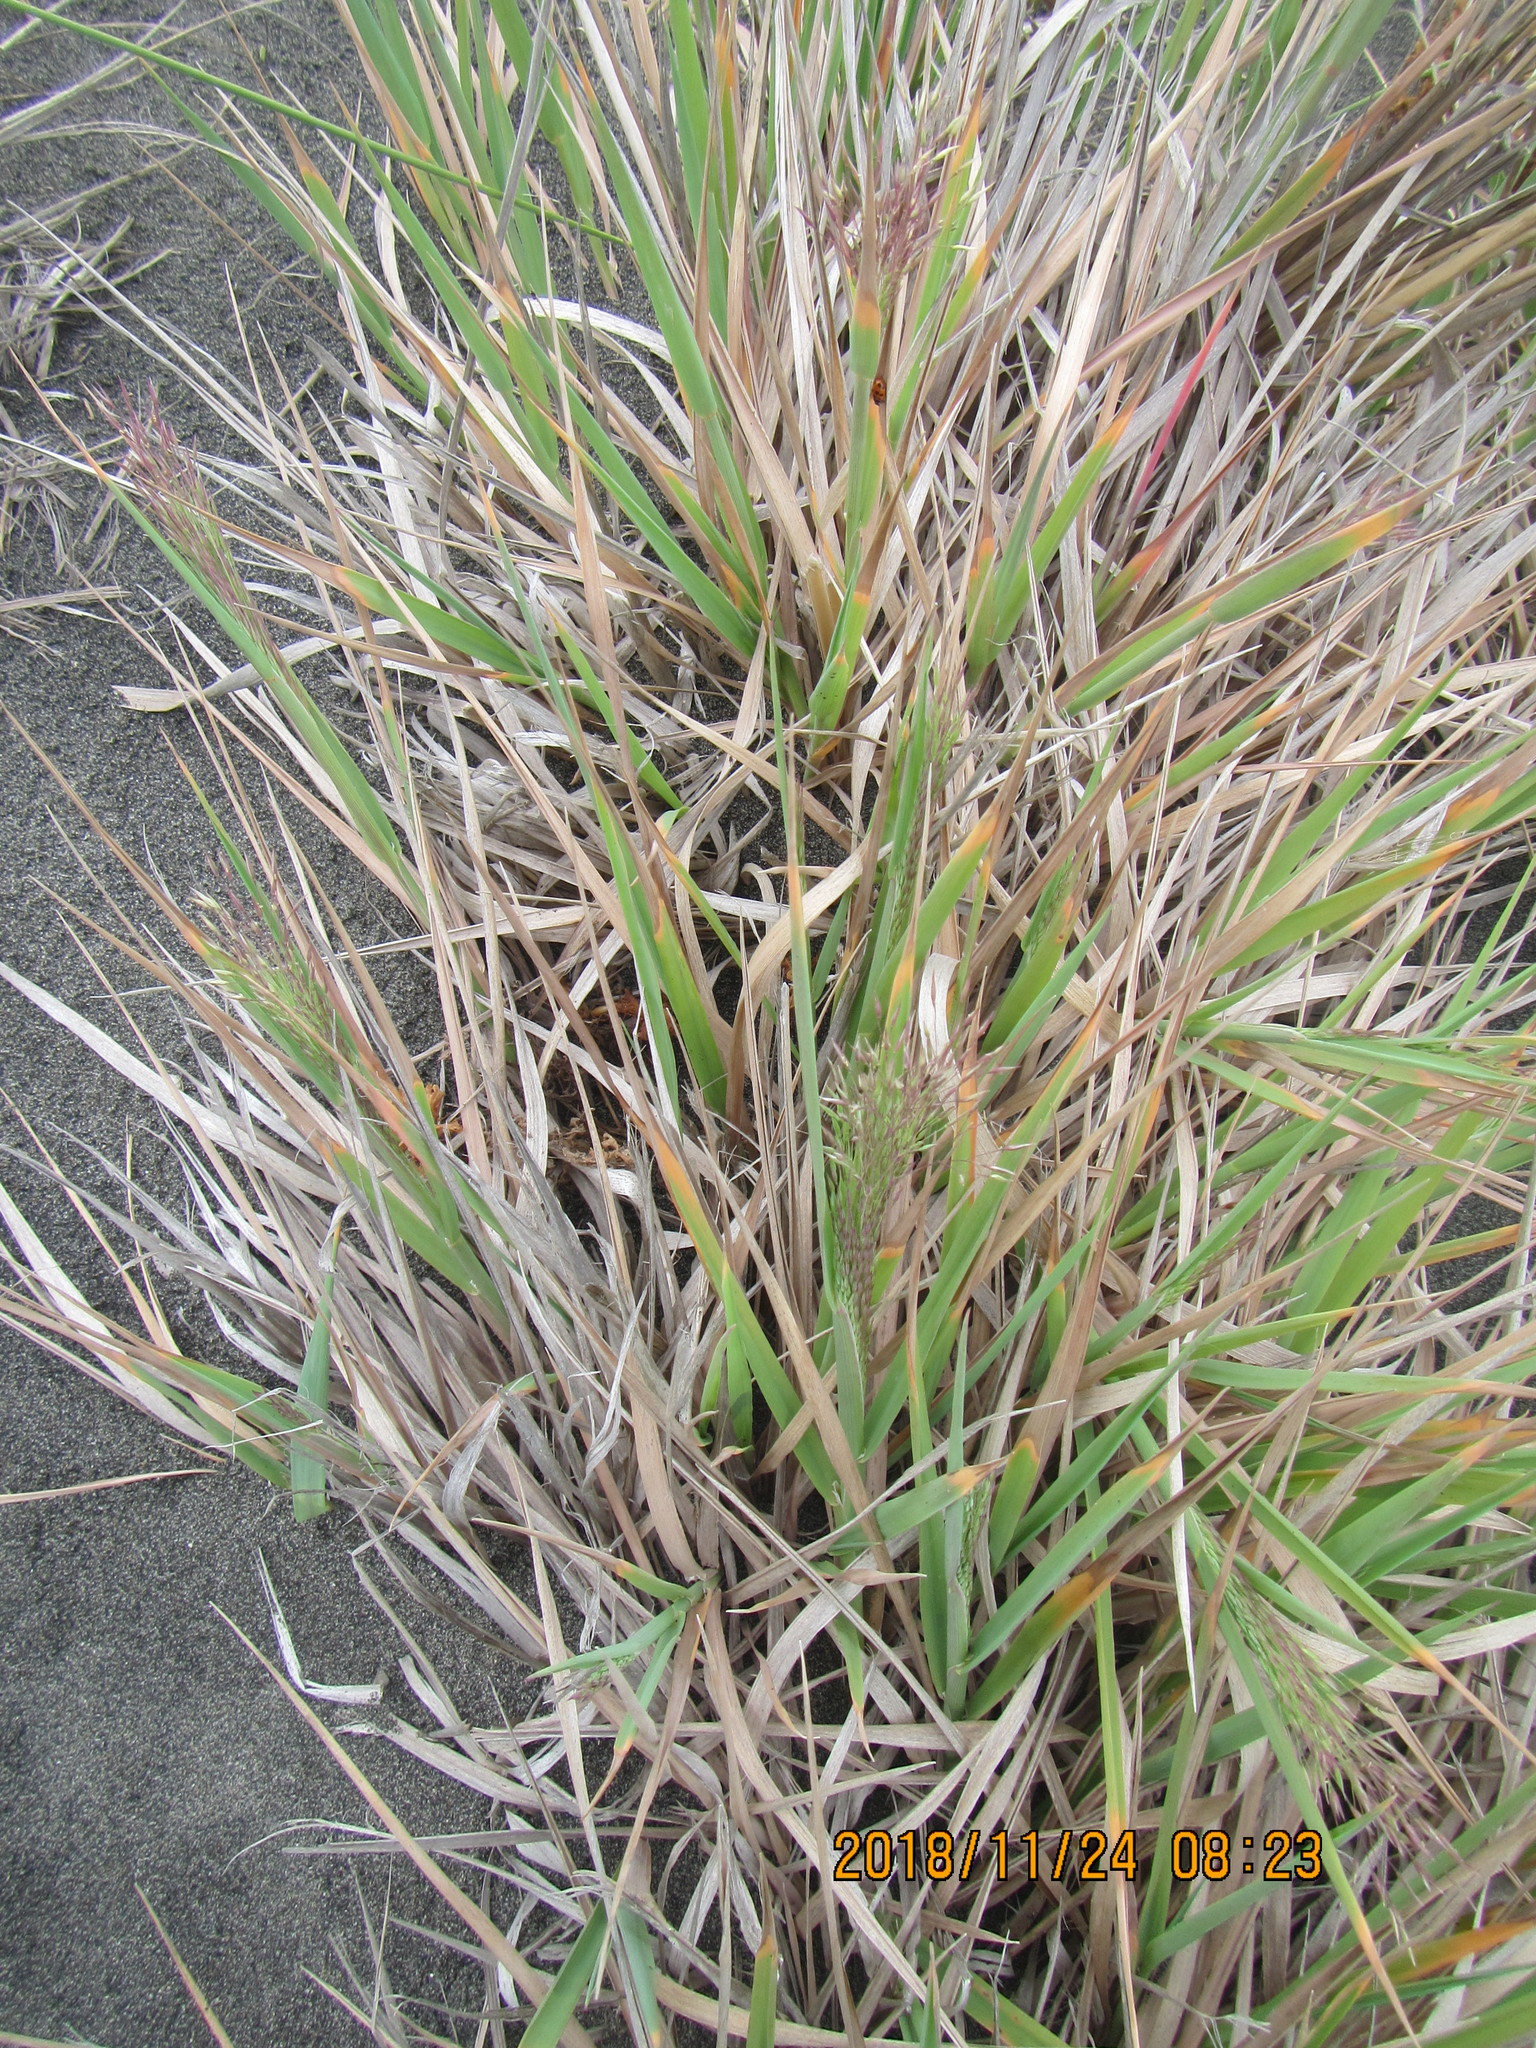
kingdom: Plantae
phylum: Tracheophyta
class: Liliopsida
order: Poales
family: Poaceae
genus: Lachnagrostis
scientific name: Lachnagrostis billardierei
